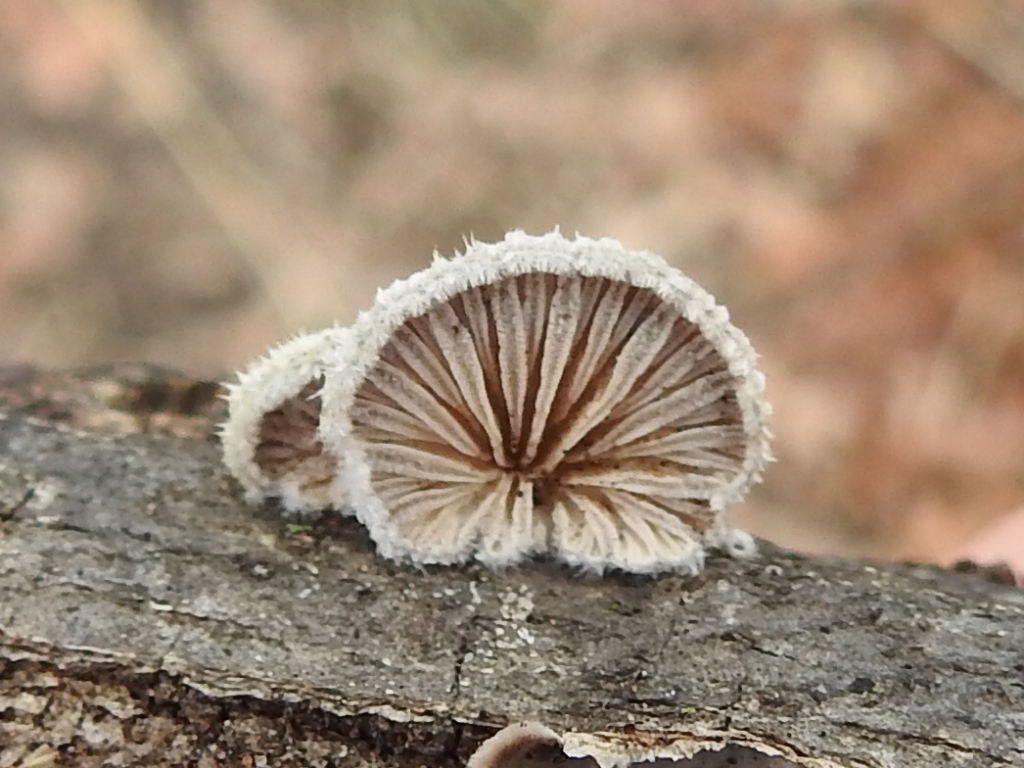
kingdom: Fungi
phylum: Basidiomycota
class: Agaricomycetes
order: Agaricales
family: Schizophyllaceae
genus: Schizophyllum
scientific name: Schizophyllum commune
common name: Common porecrust
